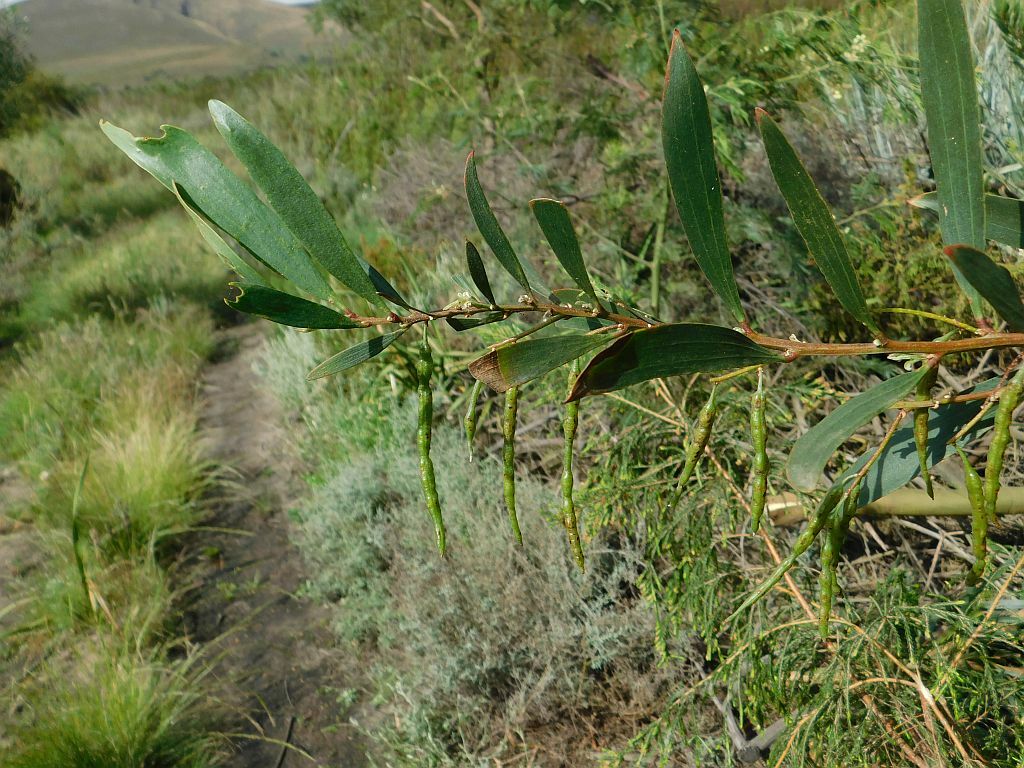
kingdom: Plantae
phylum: Tracheophyta
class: Magnoliopsida
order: Fabales
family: Fabaceae
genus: Acacia
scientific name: Acacia longifolia
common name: Sydney golden wattle
